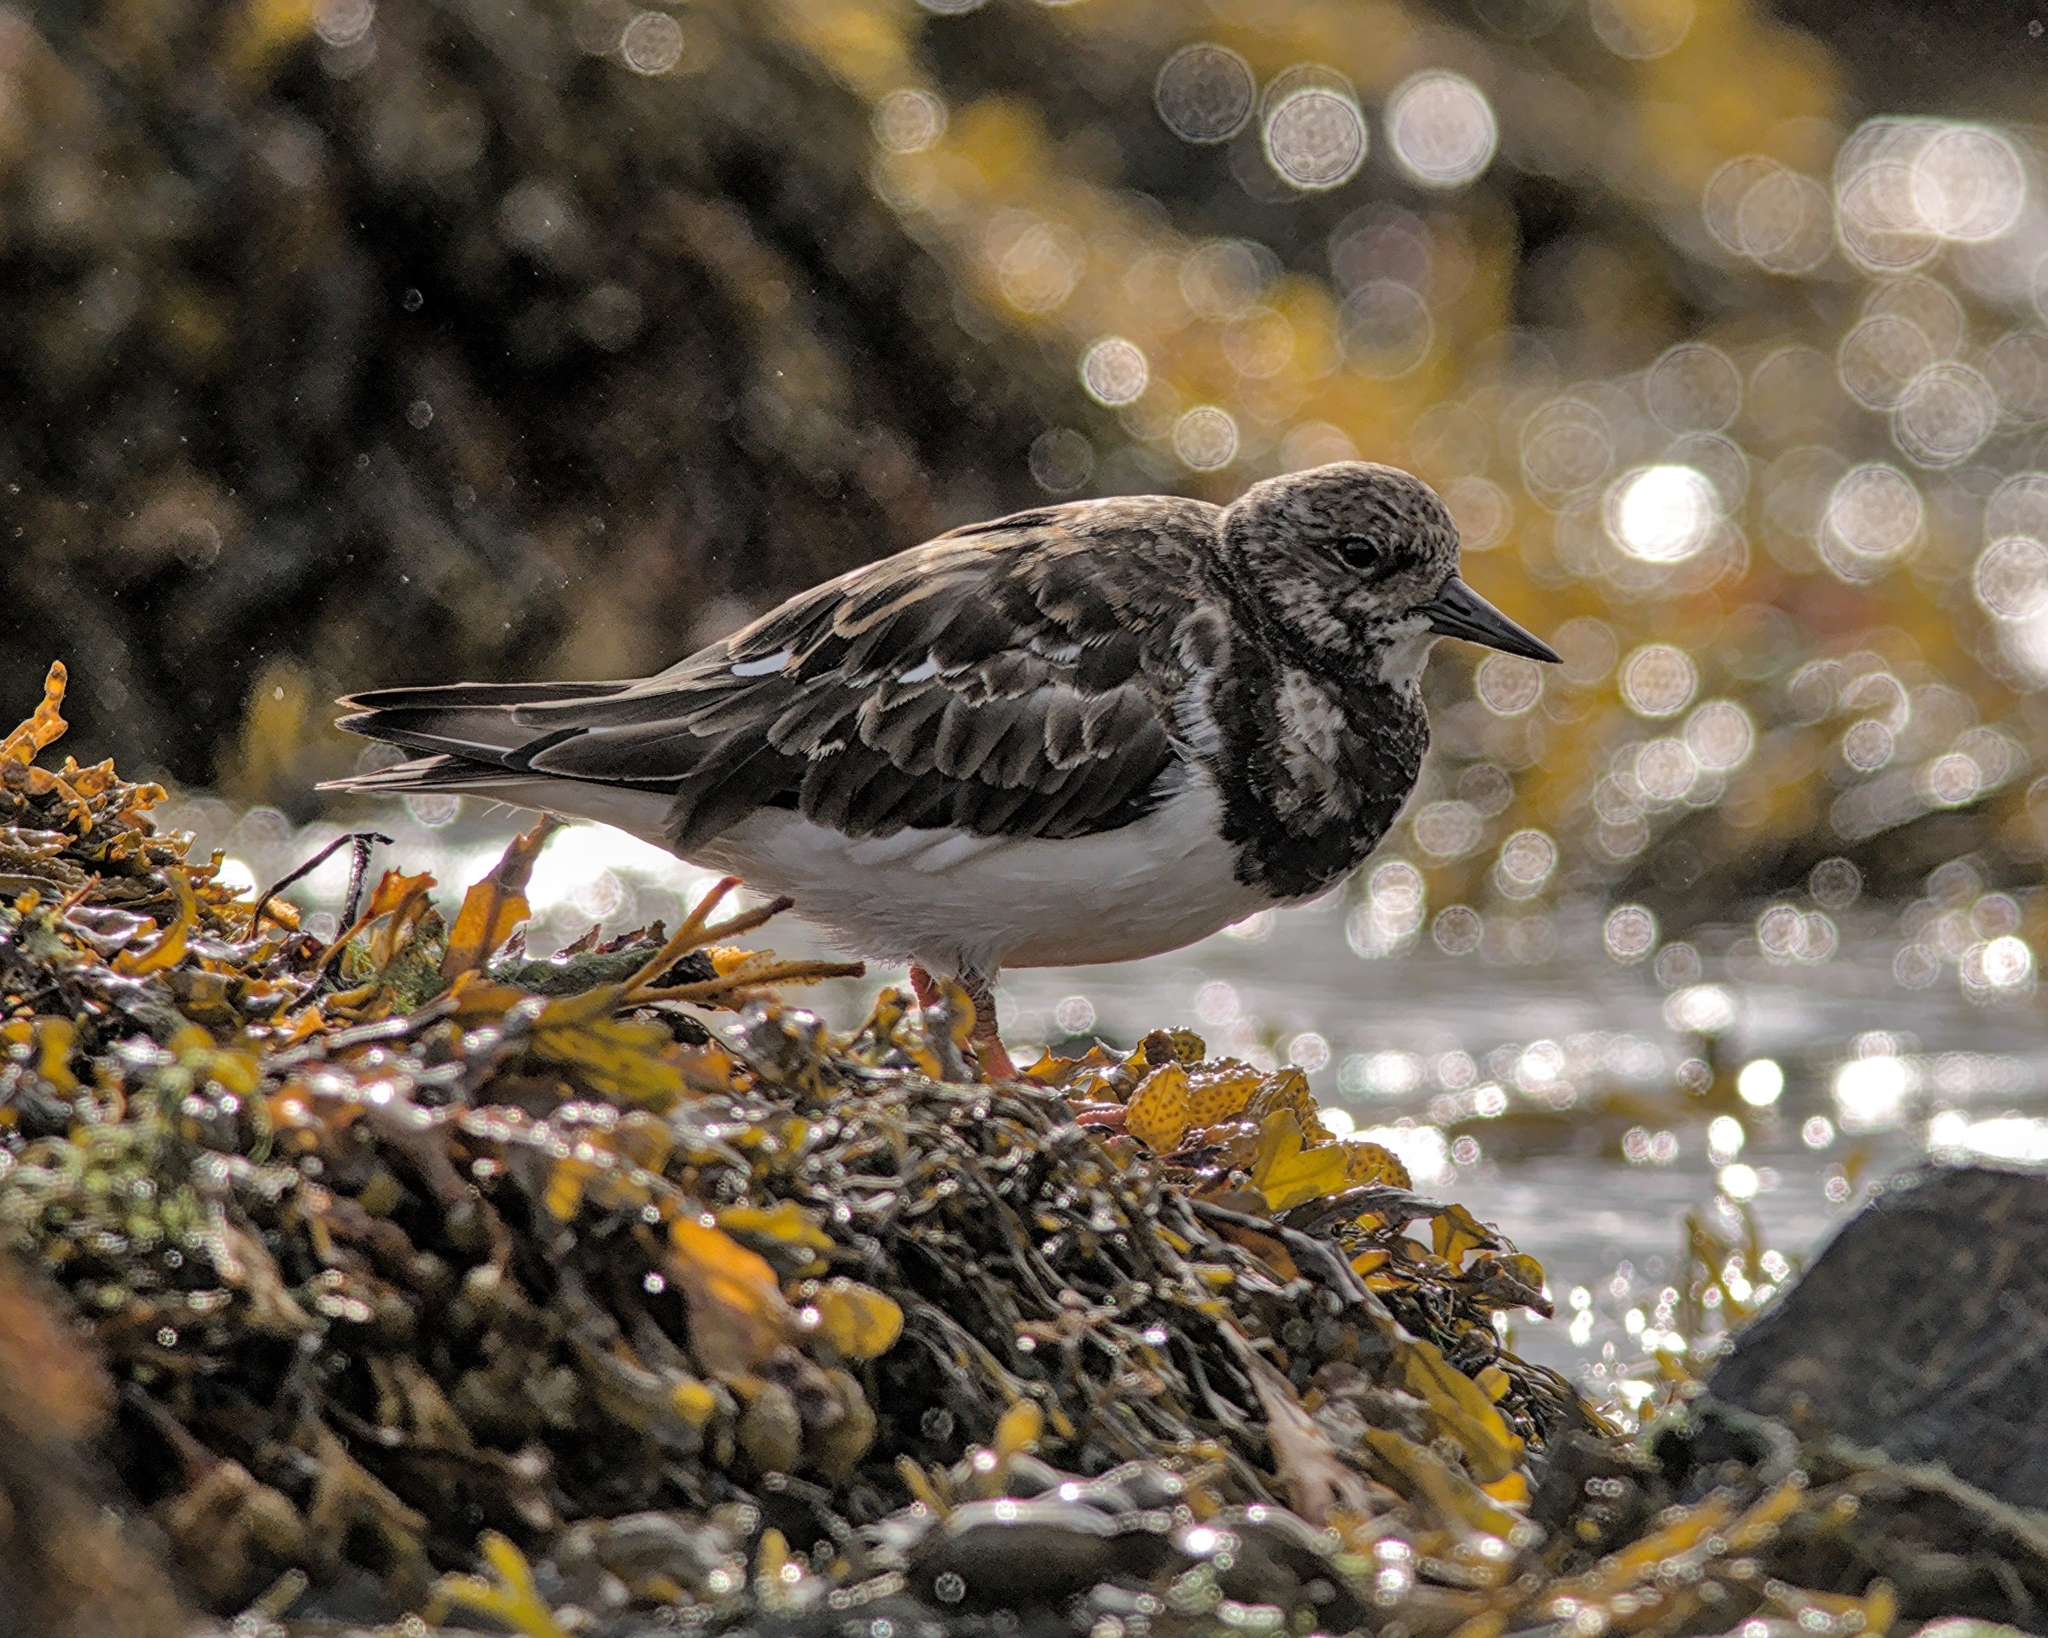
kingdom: Animalia
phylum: Chordata
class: Aves
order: Charadriiformes
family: Scolopacidae
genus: Arenaria
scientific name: Arenaria interpres
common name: Ruddy turnstone
